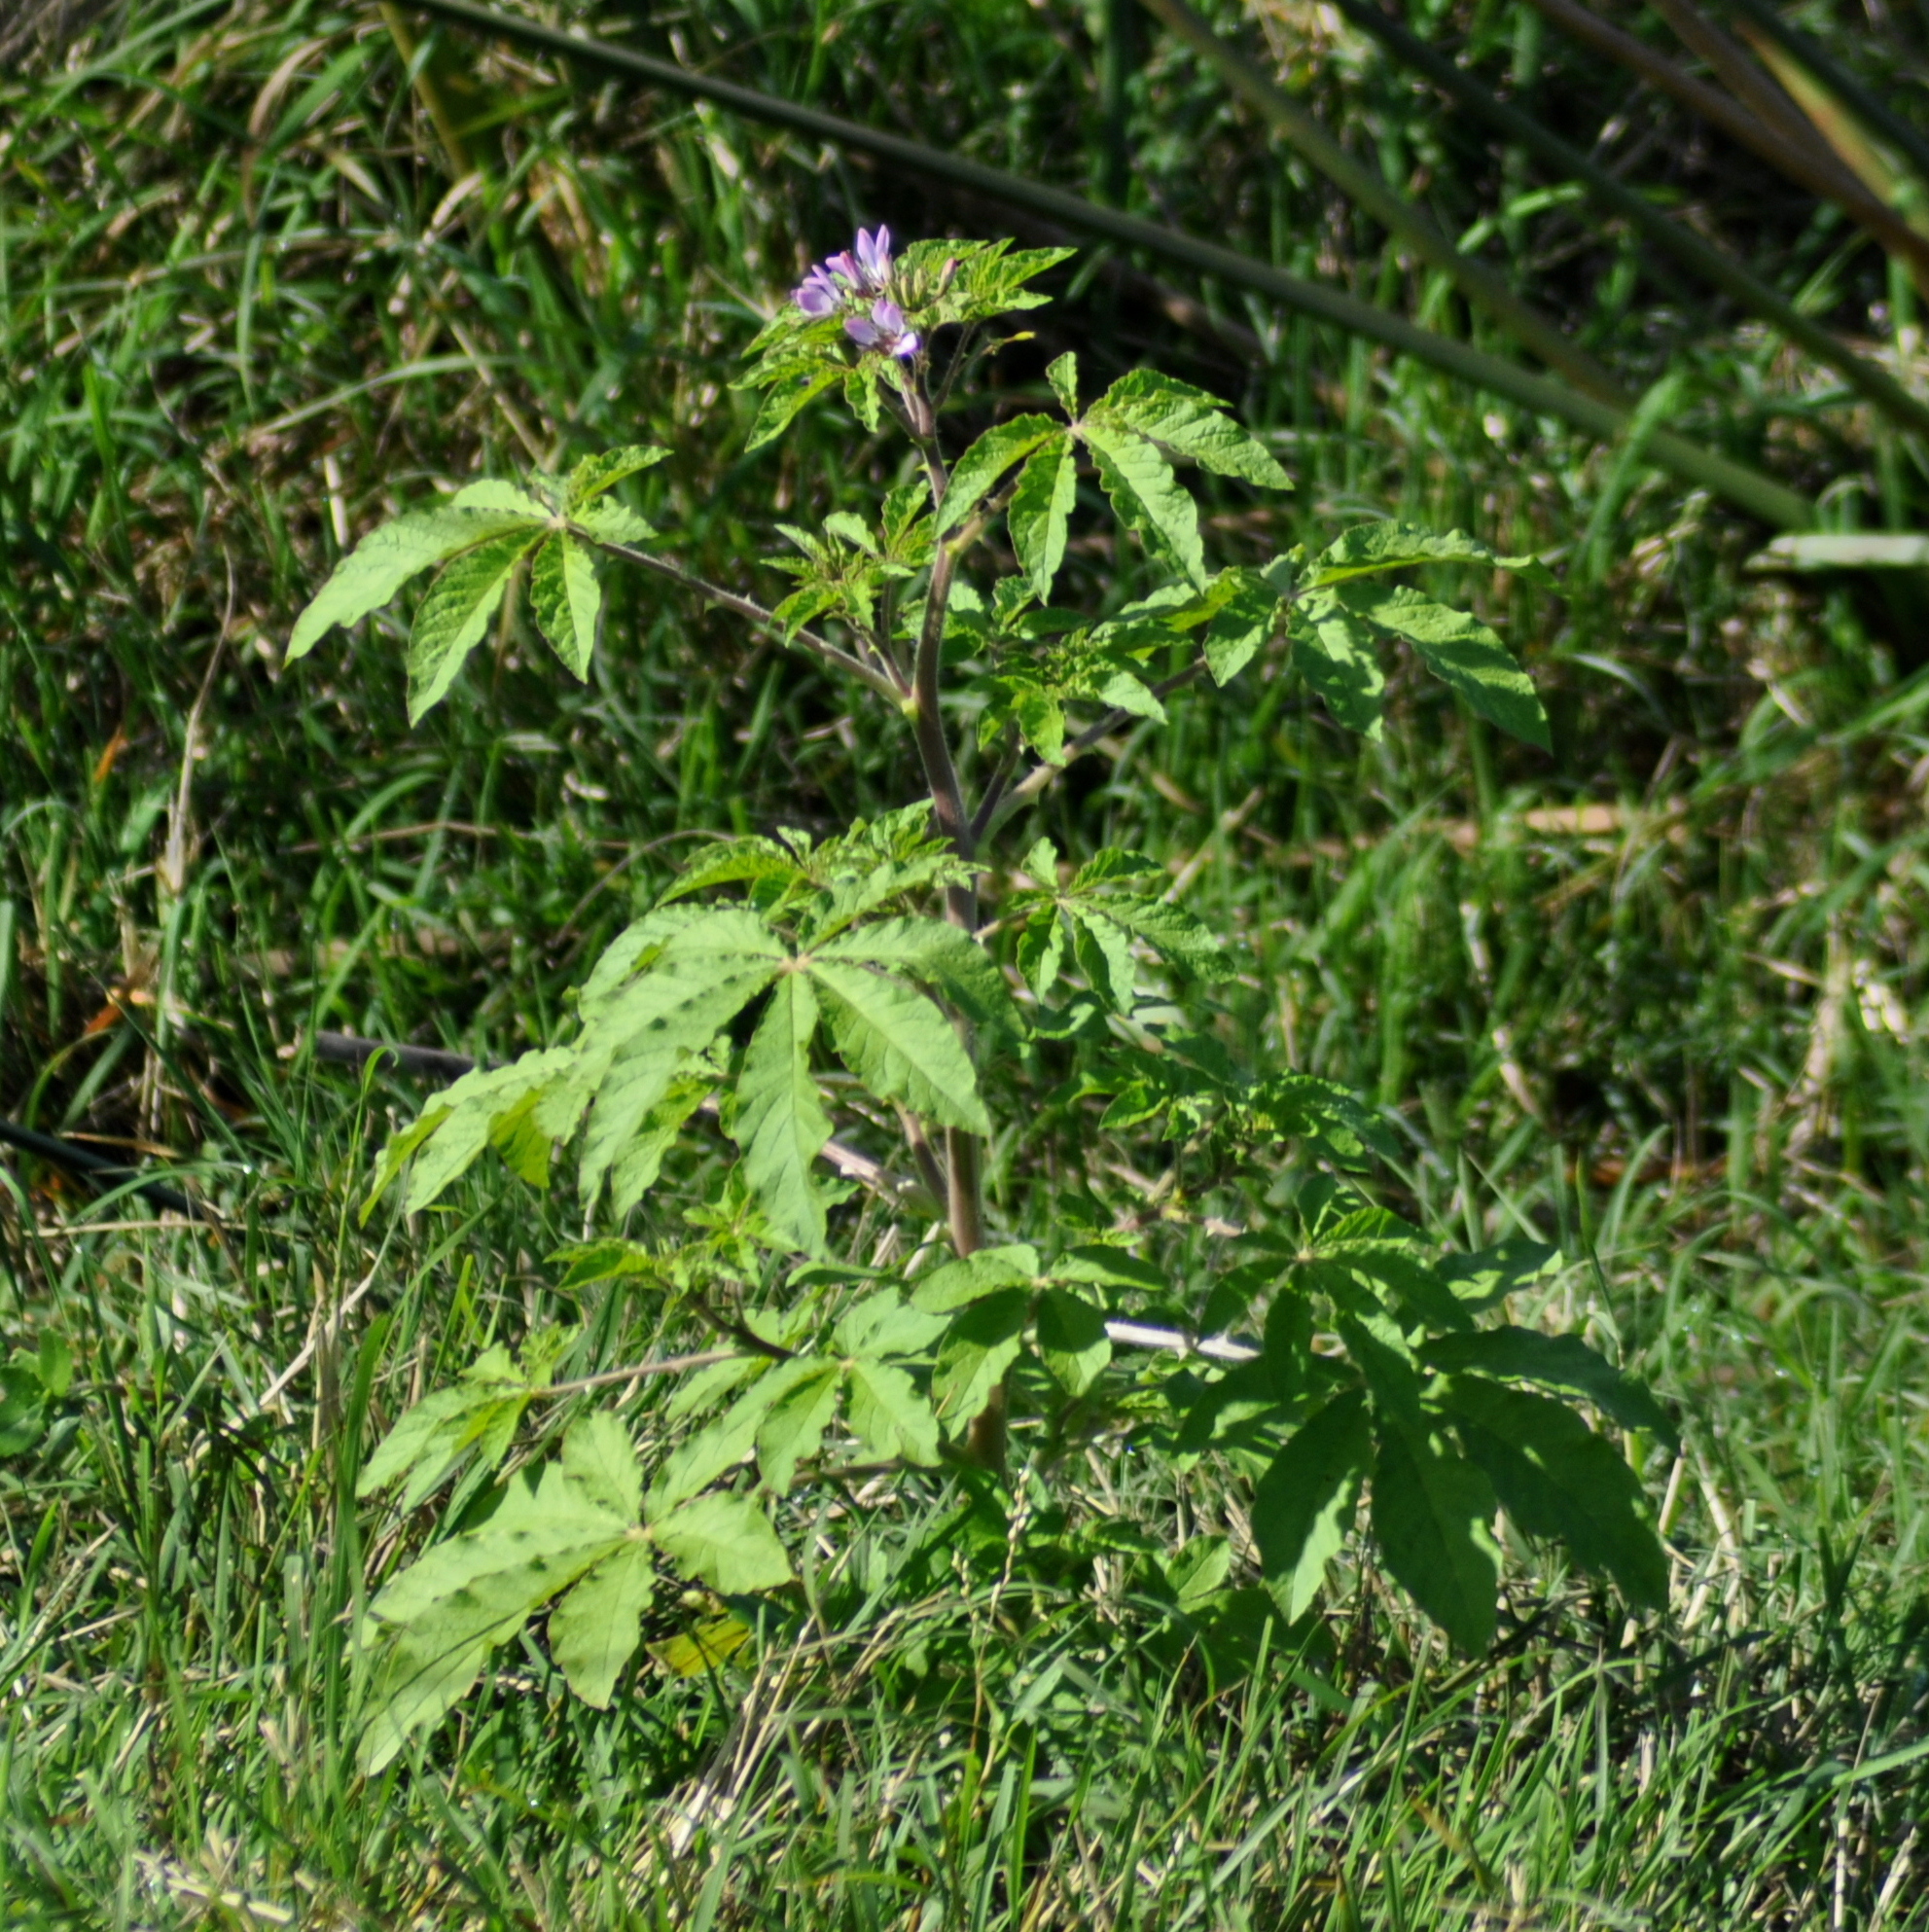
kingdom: Plantae
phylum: Tracheophyta
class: Magnoliopsida
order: Brassicales
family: Cleomaceae
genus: Tarenaya
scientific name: Tarenaya titubans
